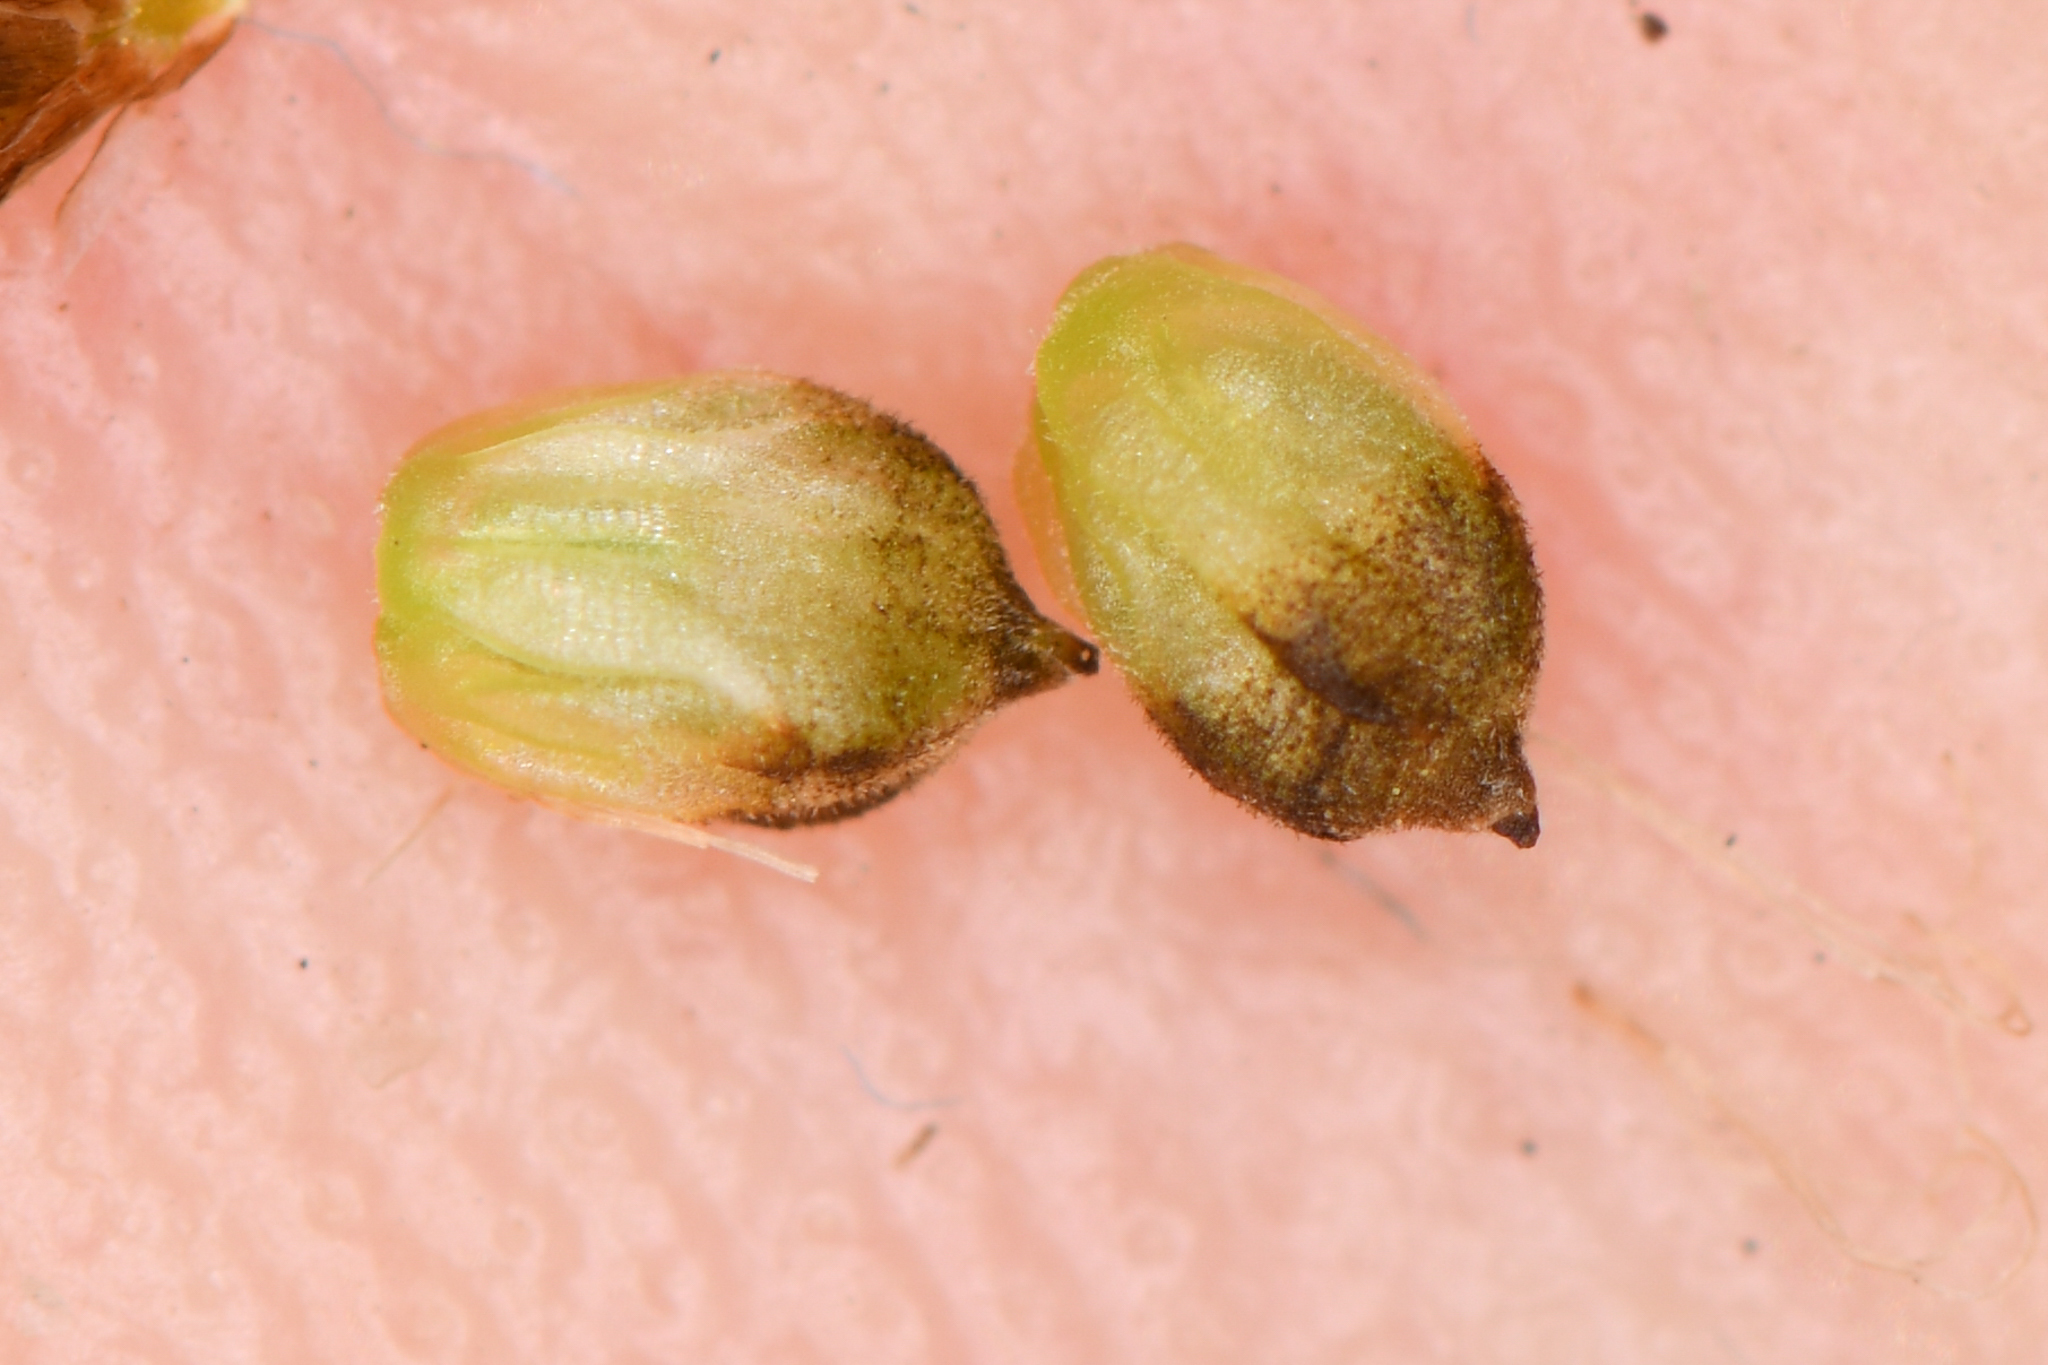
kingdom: Plantae
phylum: Tracheophyta
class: Liliopsida
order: Poales
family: Cyperaceae
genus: Carex
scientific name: Carex filifolia
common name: Threadleaf sedge
